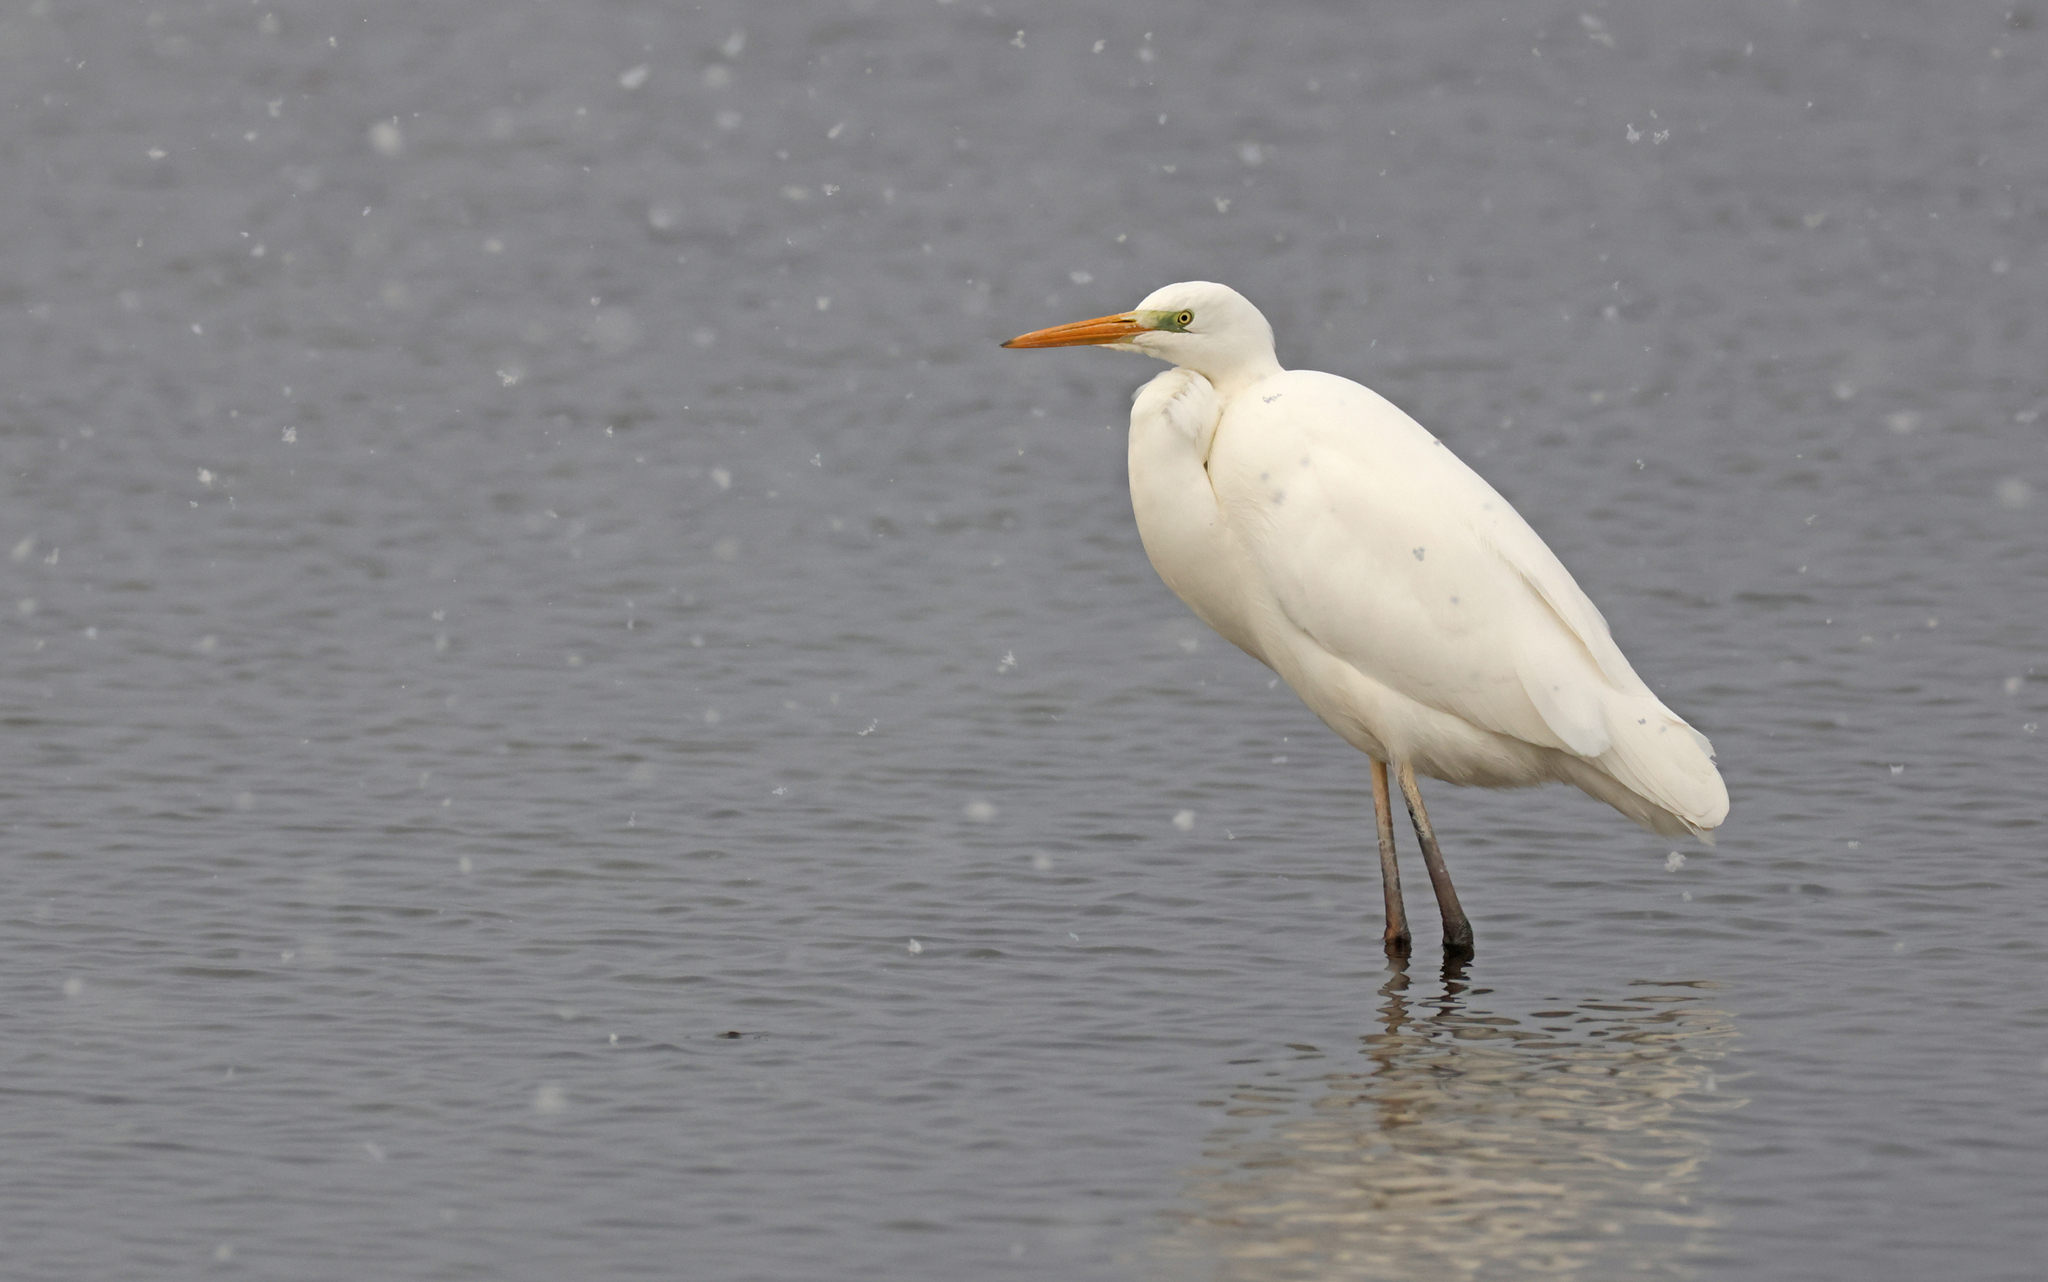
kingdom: Animalia
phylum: Chordata
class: Aves
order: Pelecaniformes
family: Ardeidae
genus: Ardea
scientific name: Ardea alba
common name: Great egret
